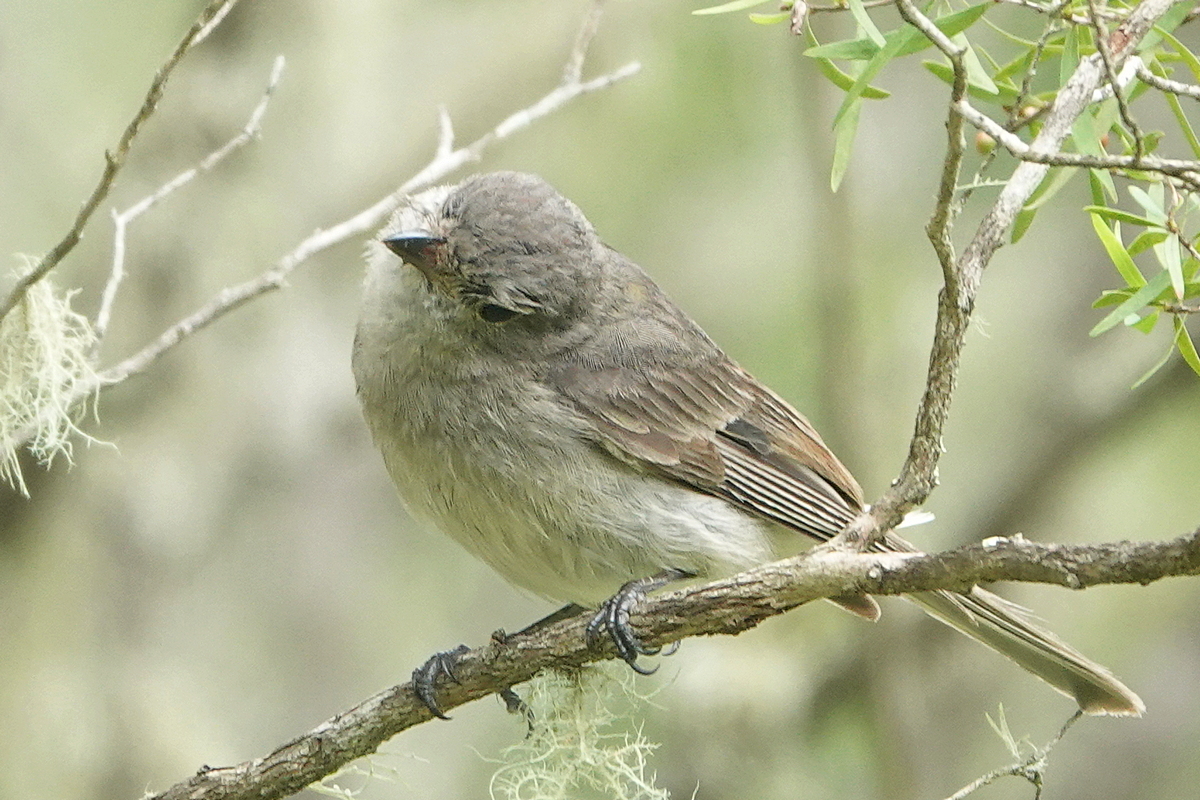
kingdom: Animalia
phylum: Chordata
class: Aves
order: Passeriformes
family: Pachycephalidae
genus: Pachycephala
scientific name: Pachycephala pectoralis
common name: Australian golden whistler
